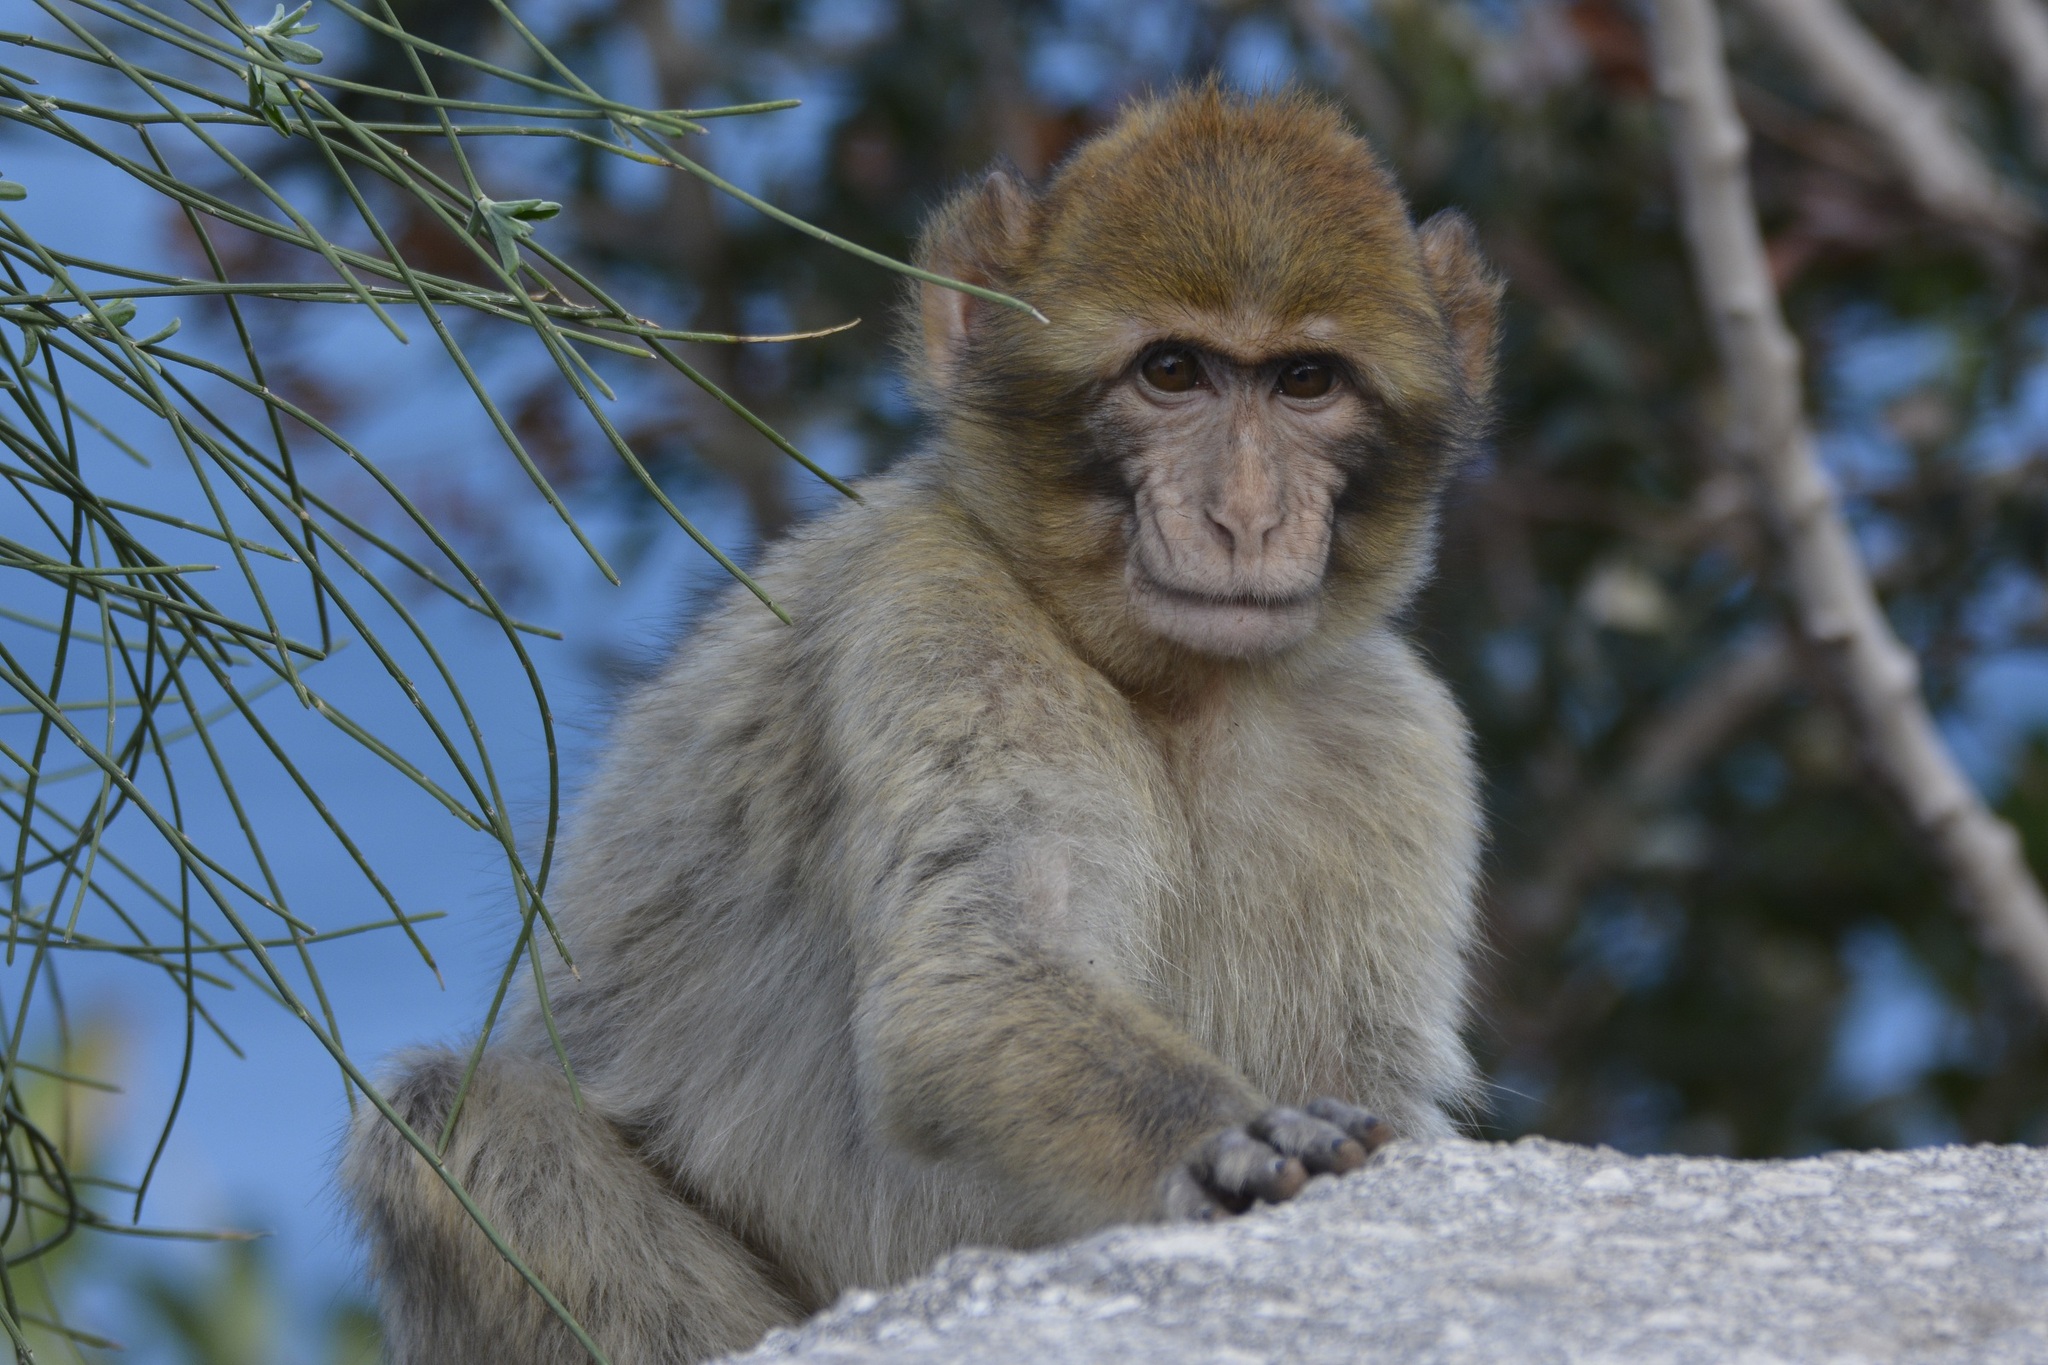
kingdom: Animalia
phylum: Chordata
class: Mammalia
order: Primates
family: Cercopithecidae
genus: Macaca
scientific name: Macaca sylvanus
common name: Barbary macaque
